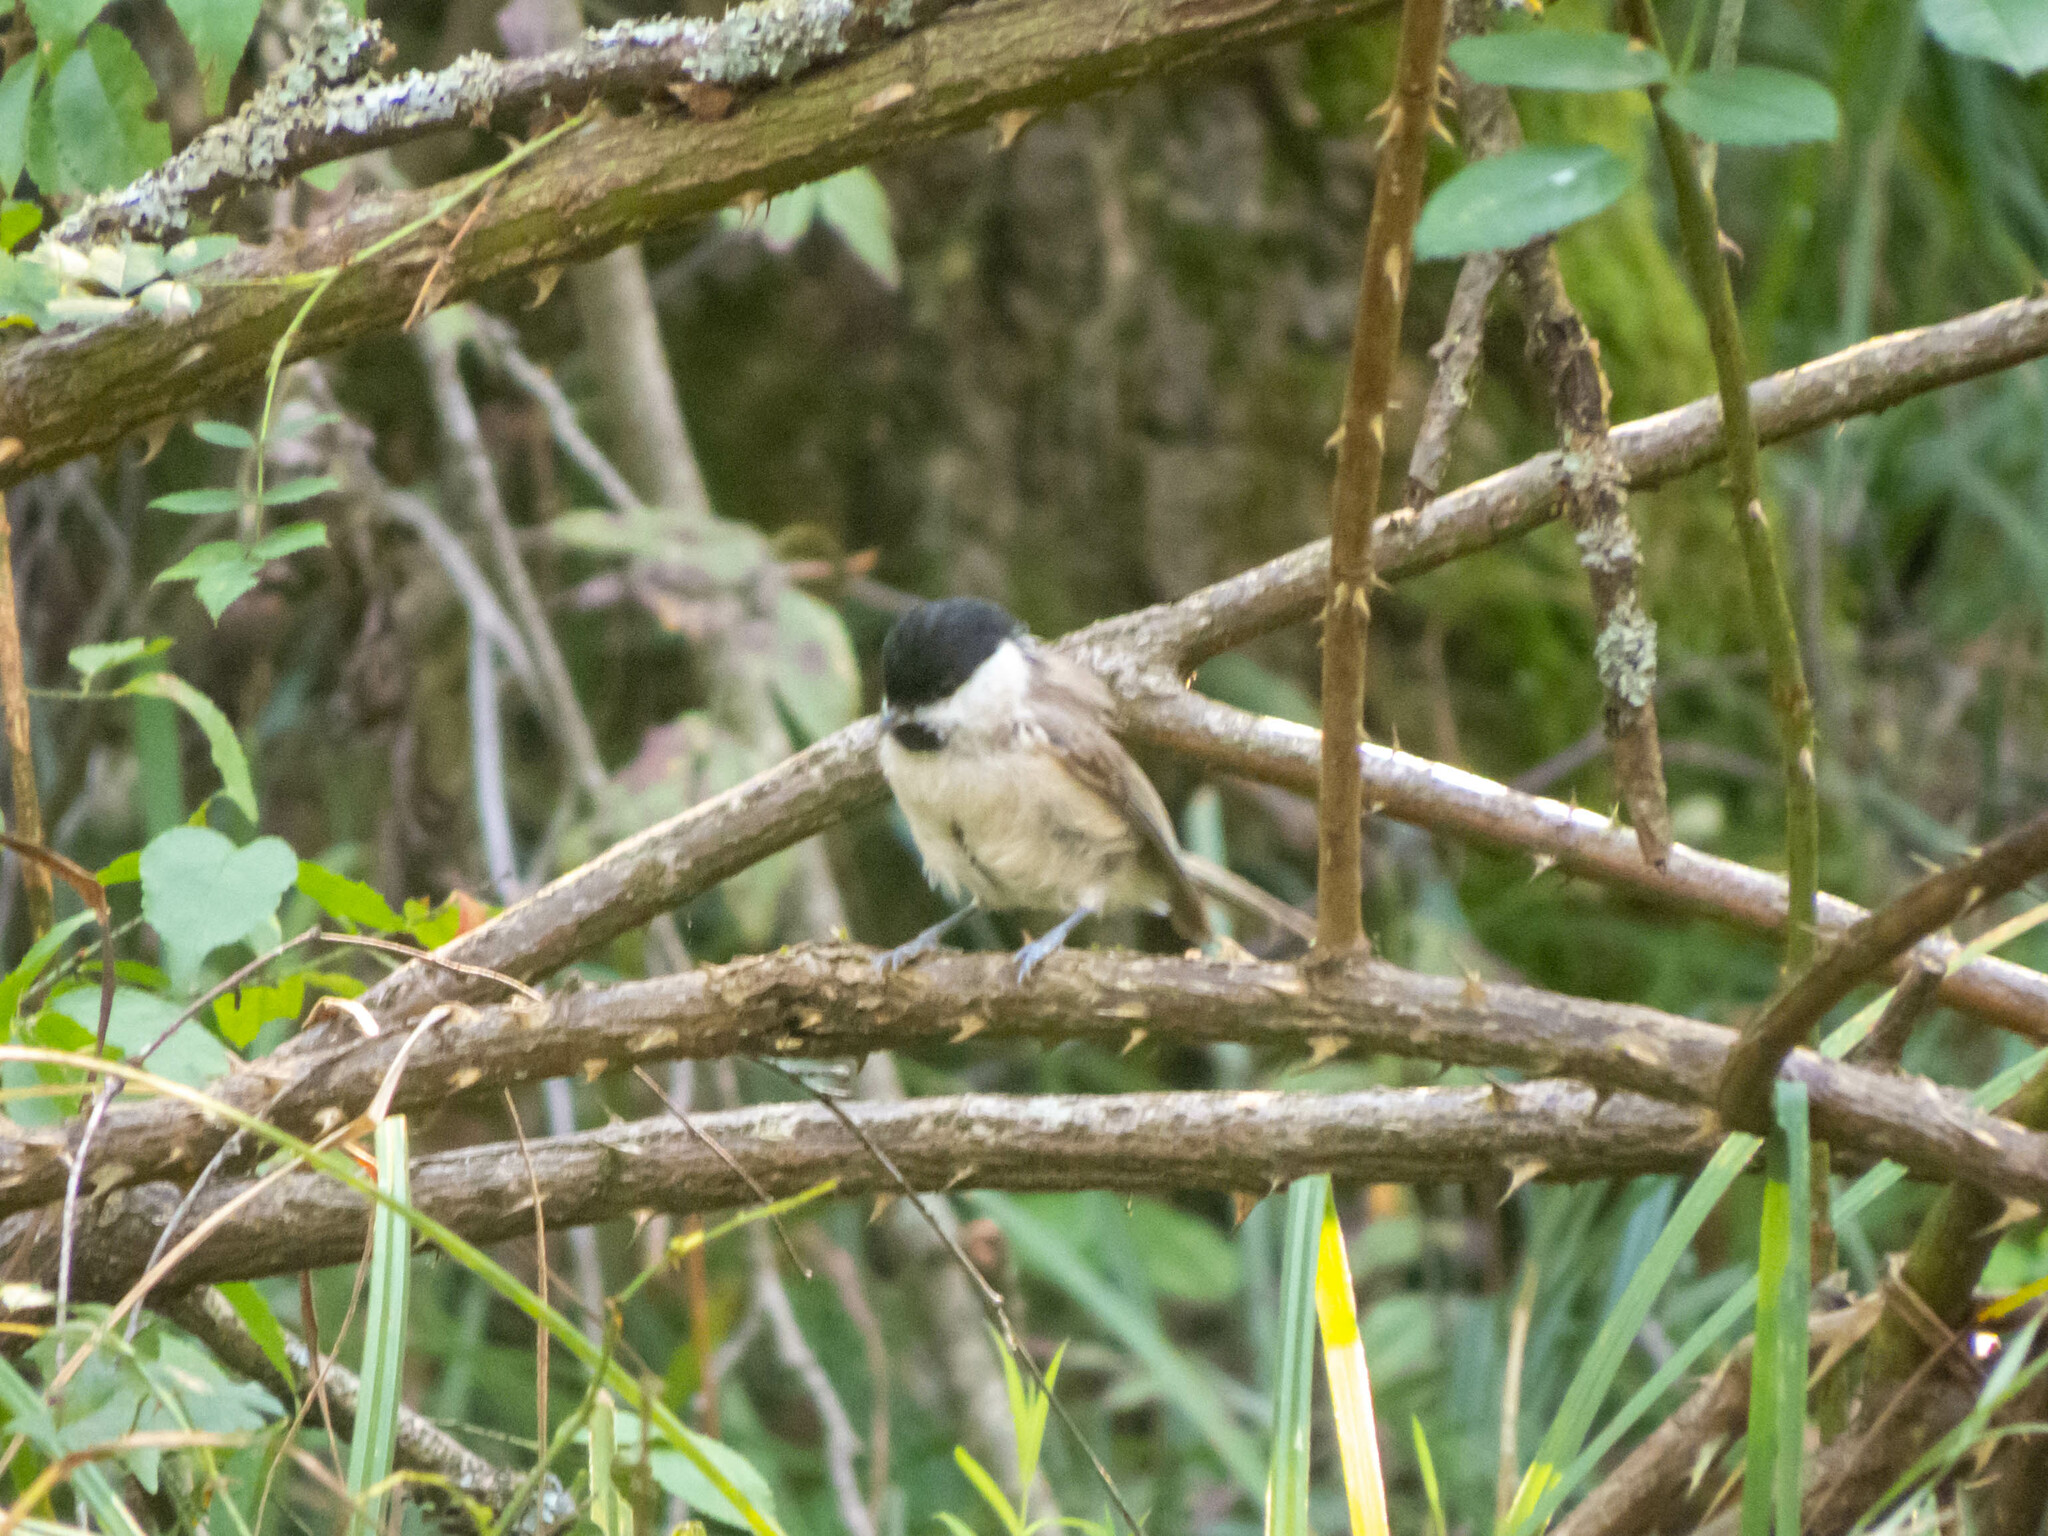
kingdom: Animalia
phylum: Chordata
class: Aves
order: Passeriformes
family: Paridae
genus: Poecile
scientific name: Poecile palustris
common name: Marsh tit
